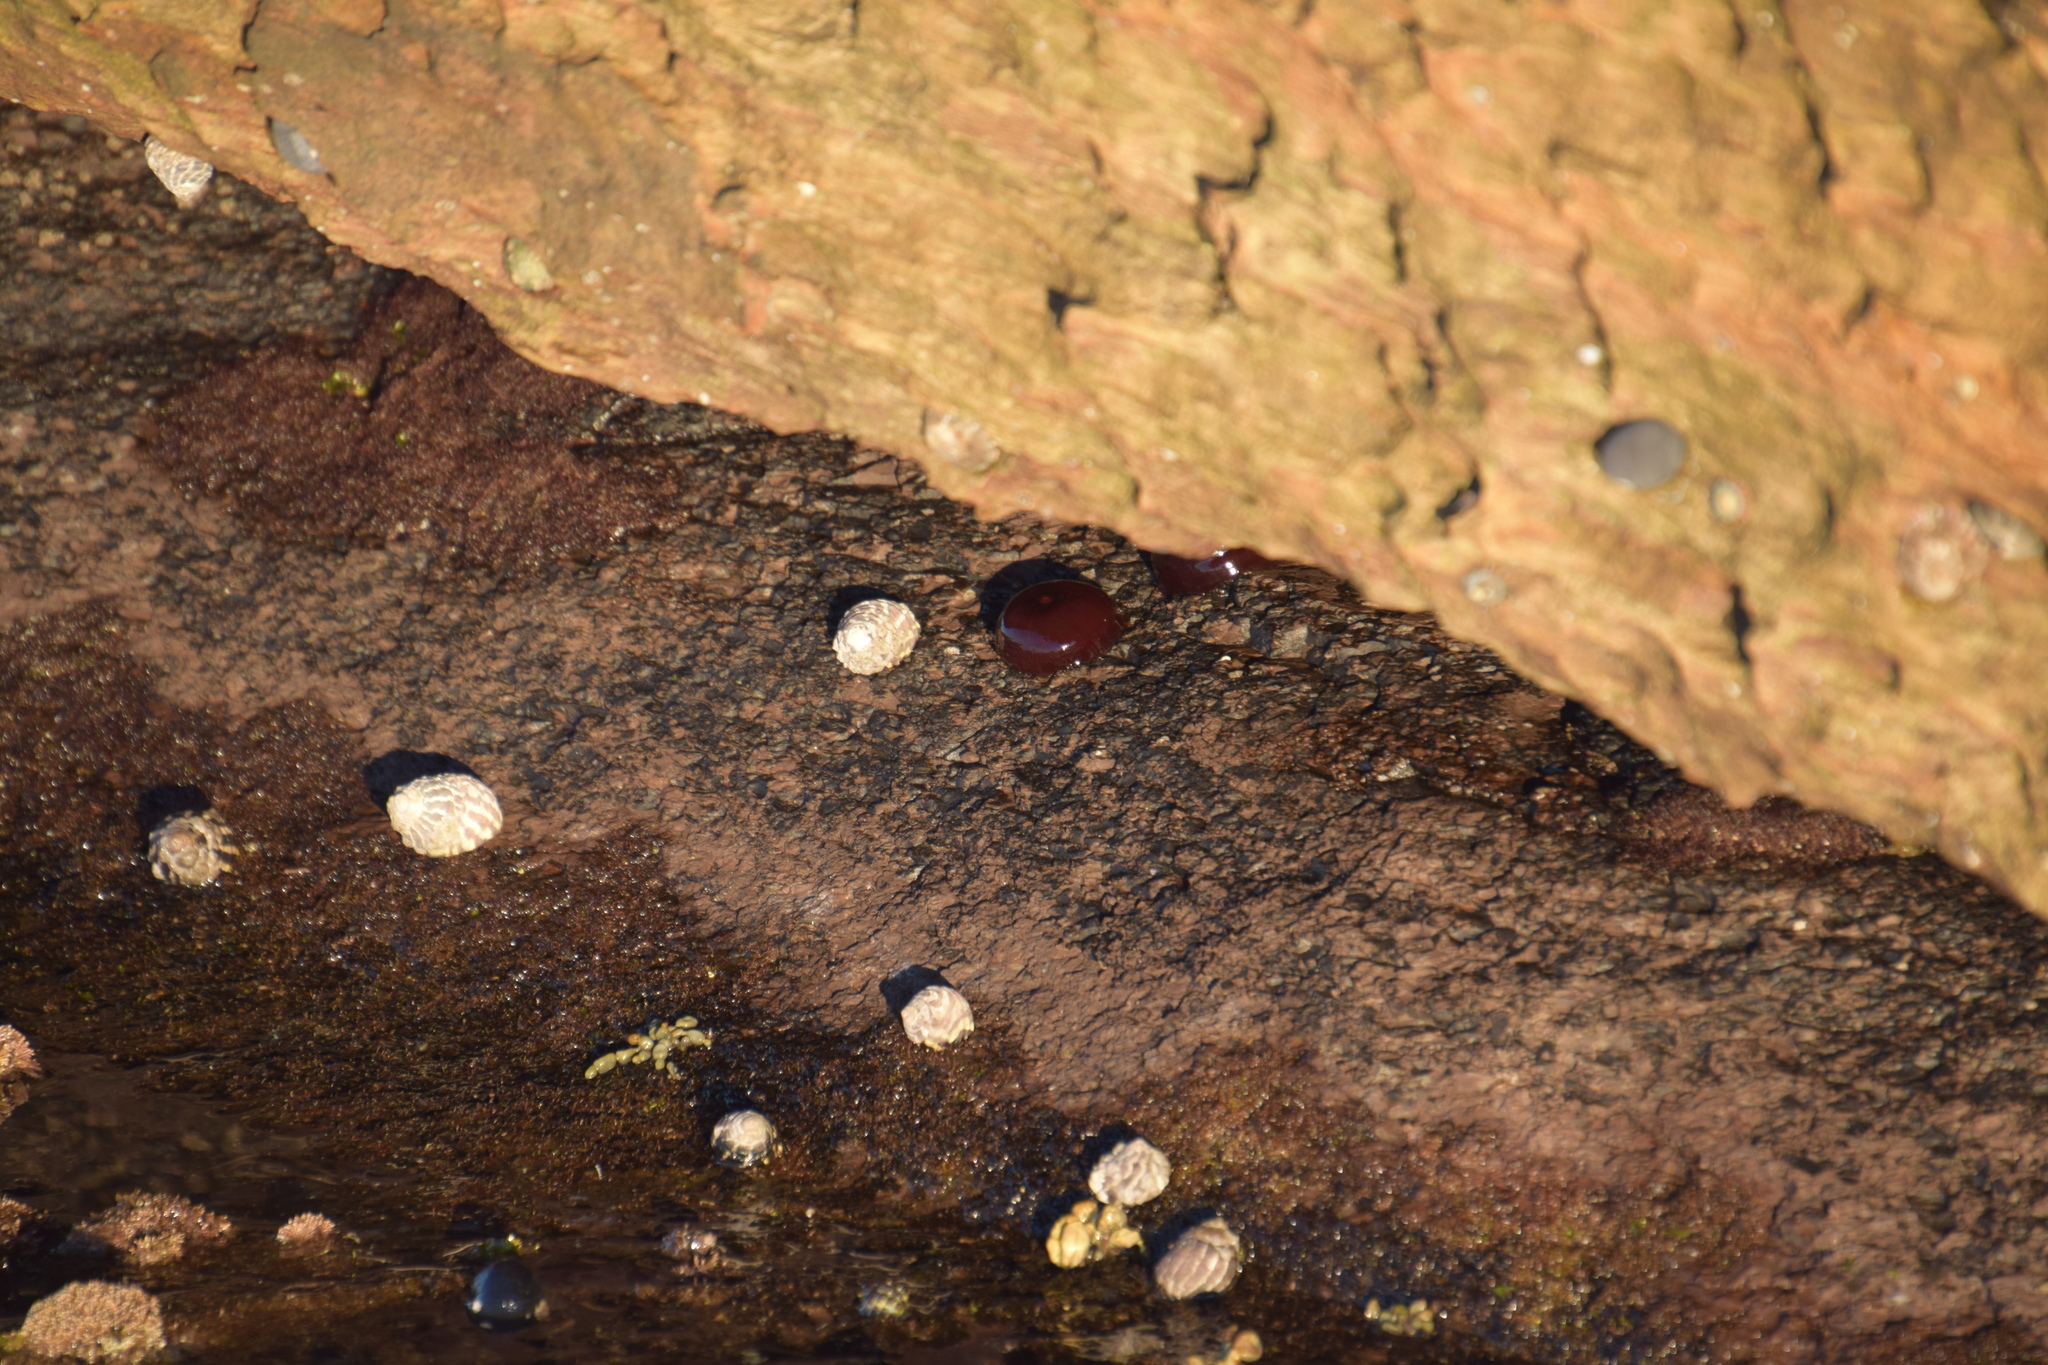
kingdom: Animalia
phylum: Cnidaria
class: Anthozoa
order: Actiniaria
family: Actiniidae
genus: Actinia
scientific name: Actinia tenebrosa
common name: Waratah anemone
